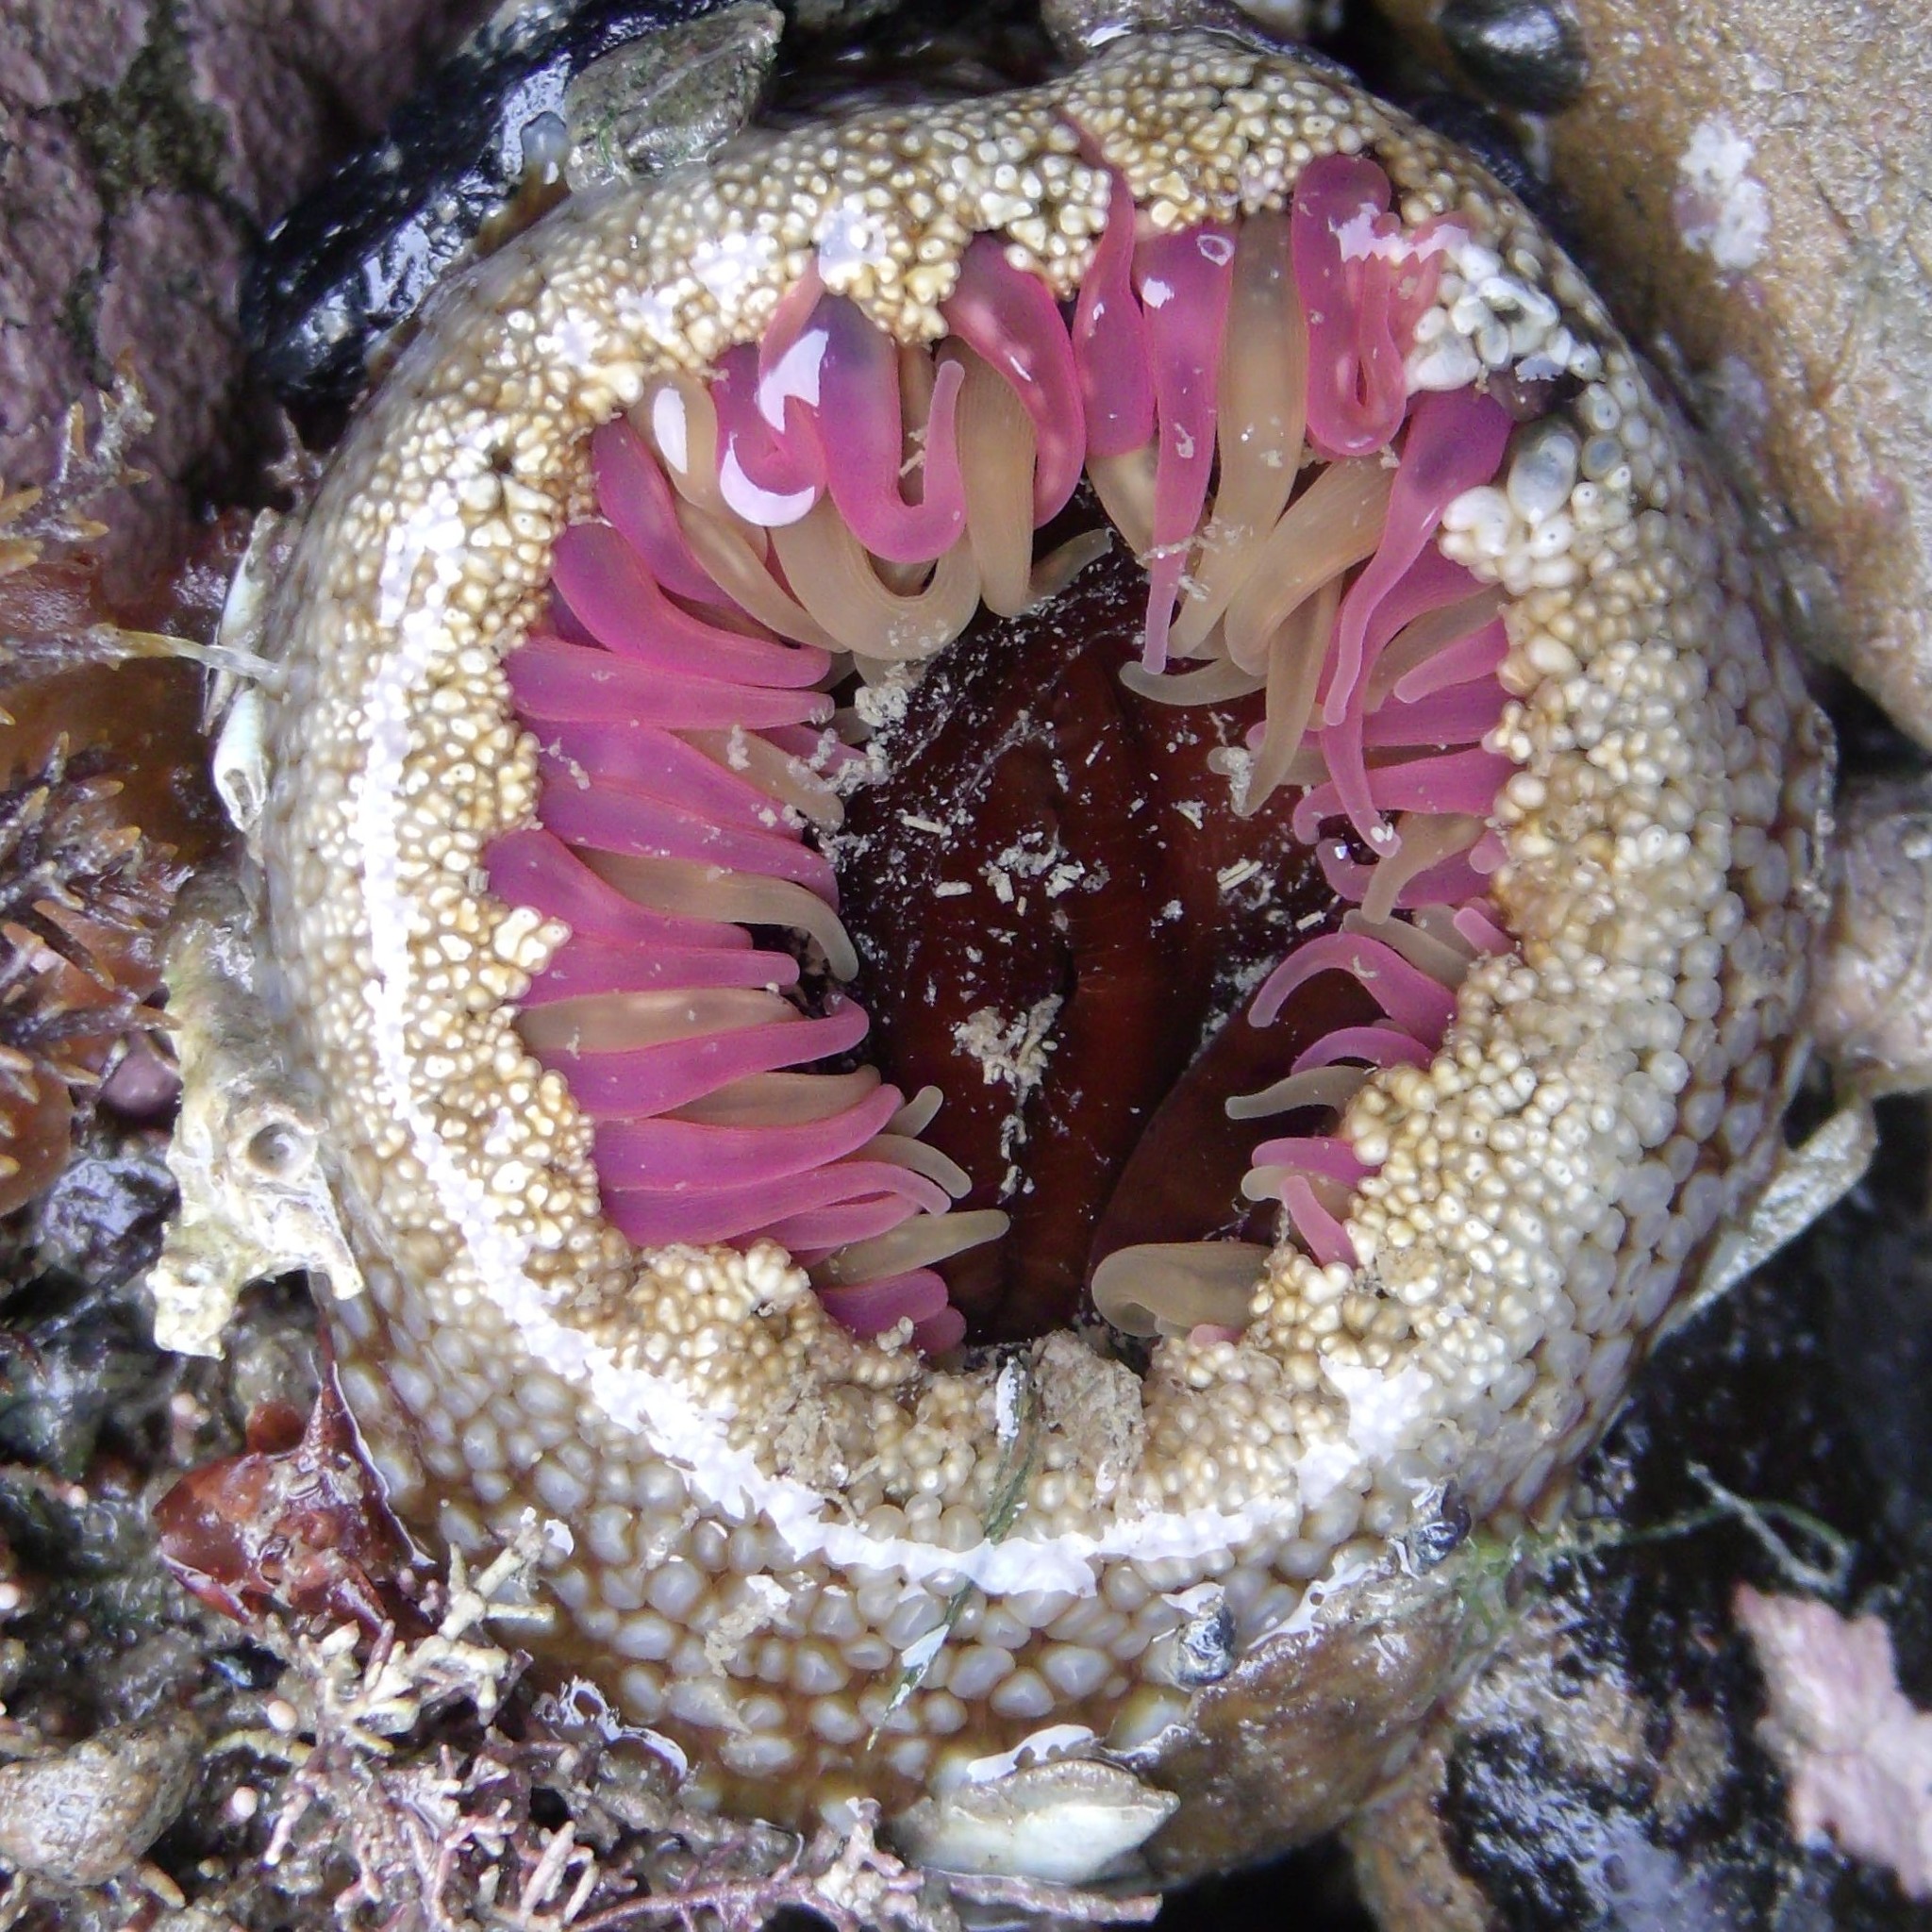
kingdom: Animalia
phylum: Cnidaria
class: Anthozoa
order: Actiniaria
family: Actiniidae
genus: Oulactis
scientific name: Oulactis muscosa
